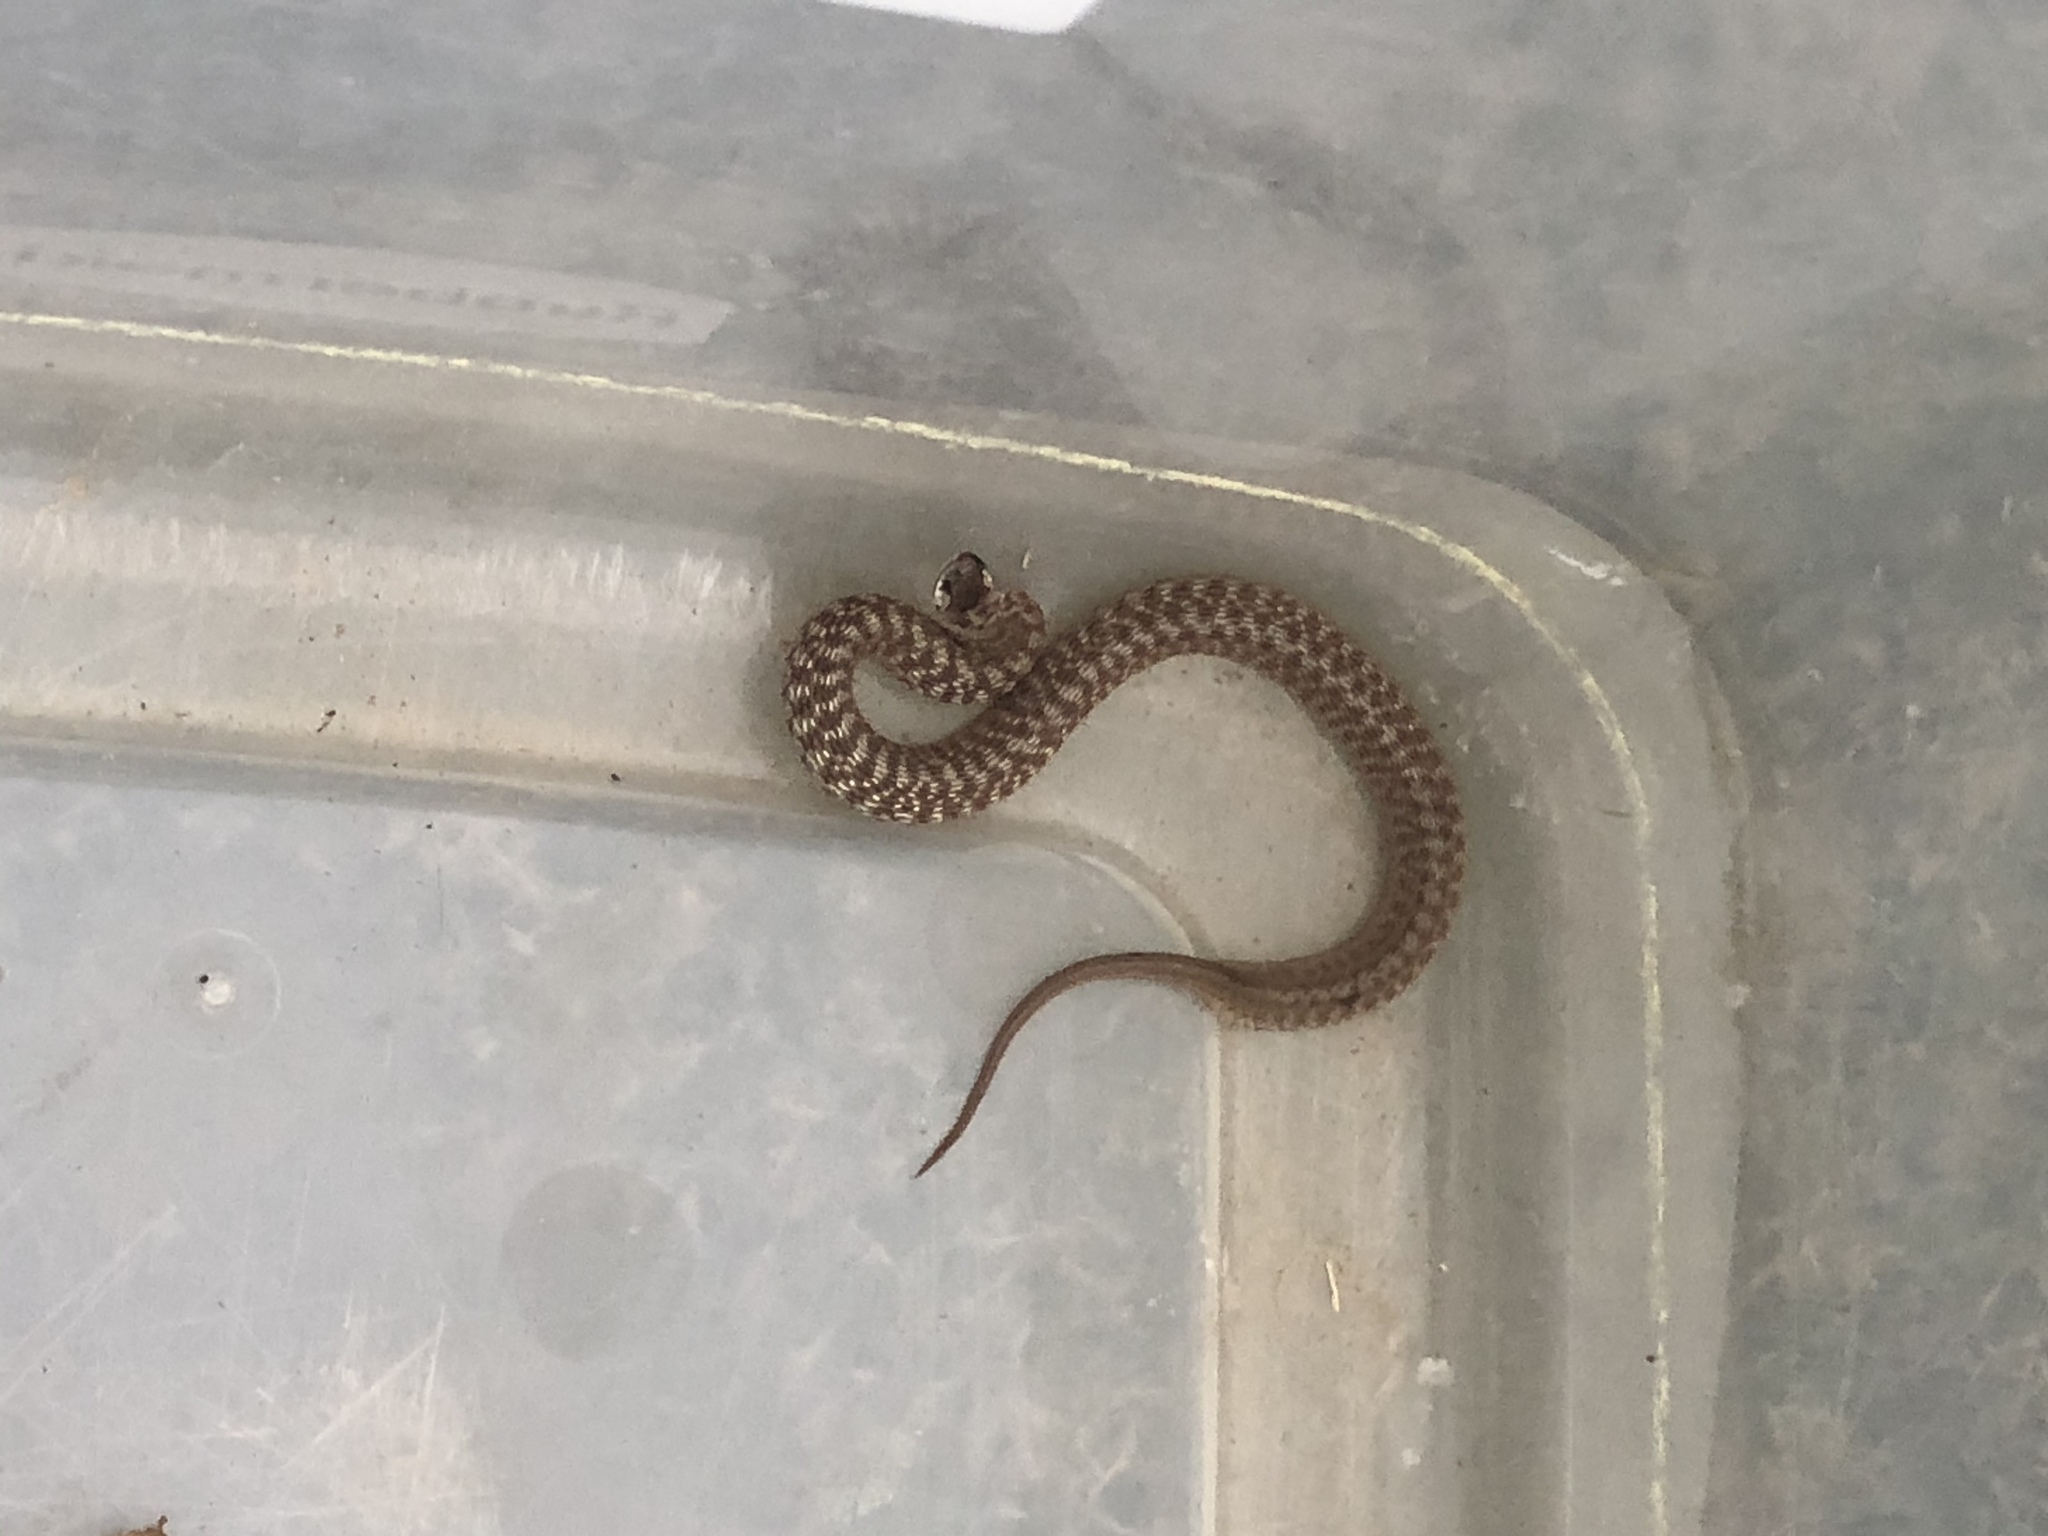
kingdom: Animalia
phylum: Chordata
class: Squamata
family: Colubridae
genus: Storeria
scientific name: Storeria dekayi
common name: (dekay’s) brown snake
